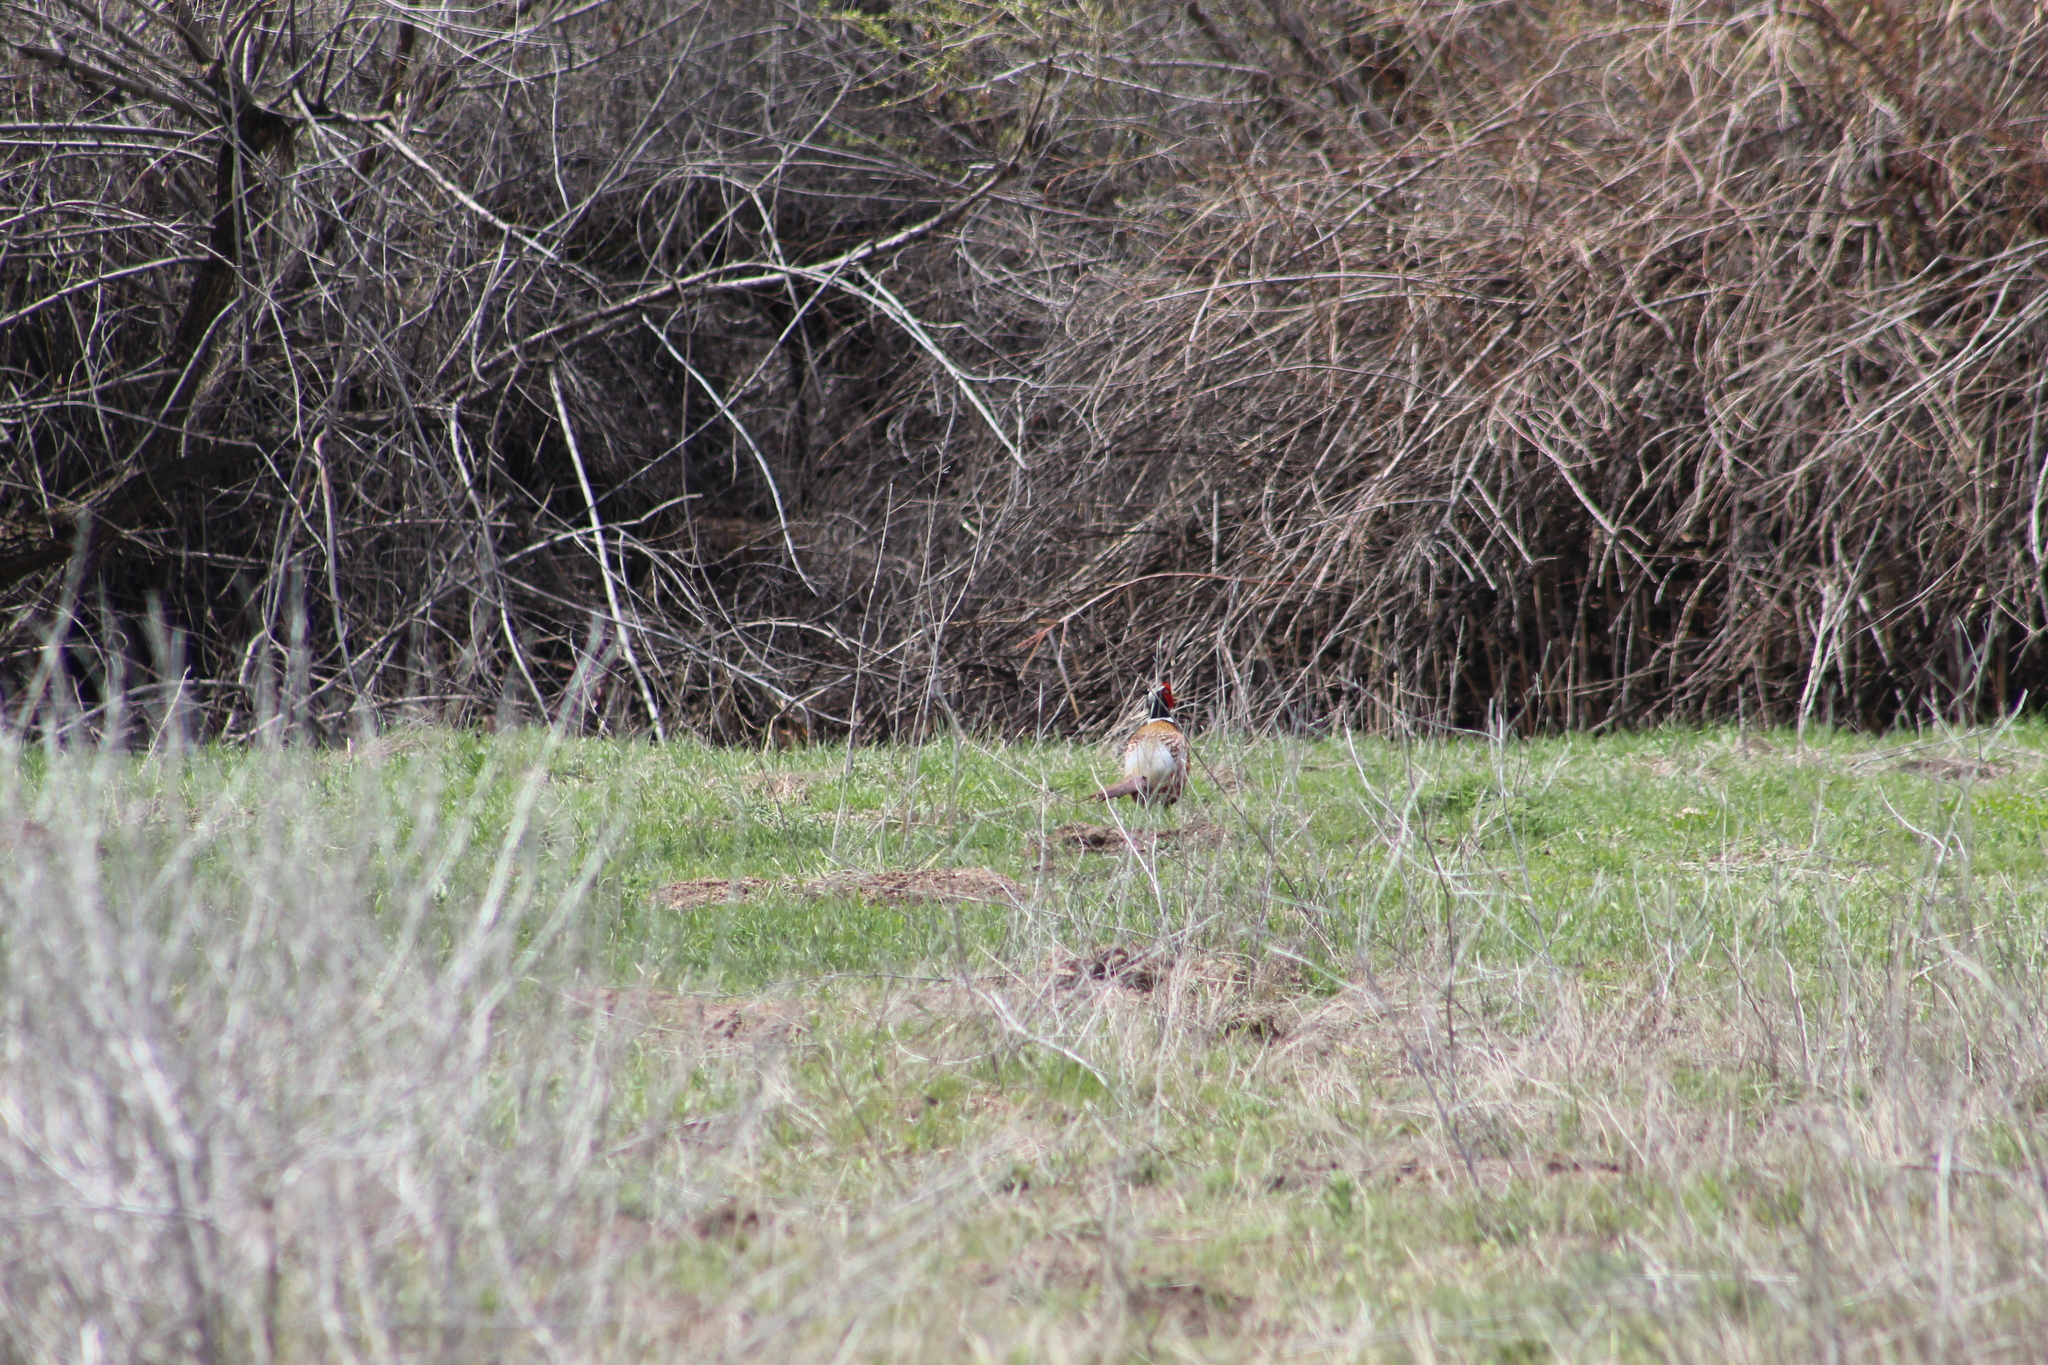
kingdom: Animalia
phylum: Chordata
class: Aves
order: Galliformes
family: Phasianidae
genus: Phasianus
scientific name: Phasianus colchicus
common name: Common pheasant
